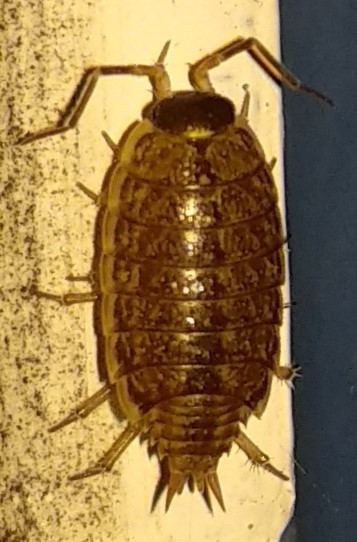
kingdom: Animalia
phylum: Arthropoda
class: Malacostraca
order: Isopoda
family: Philosciidae
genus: Philoscia
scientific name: Philoscia muscorum
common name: Common striped woodlouse
